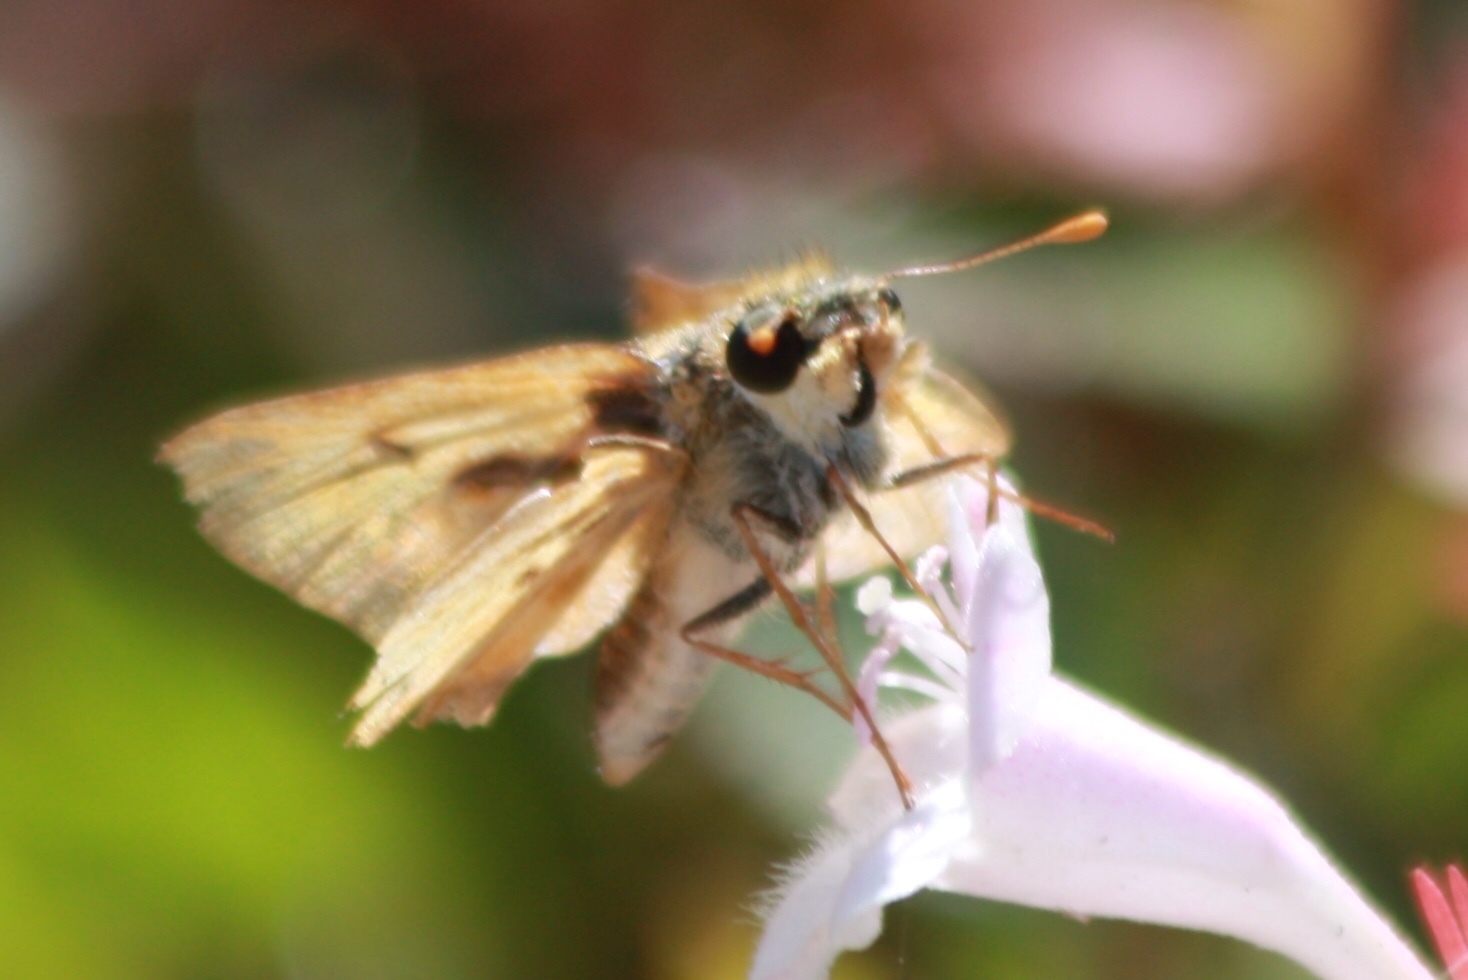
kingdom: Animalia
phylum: Arthropoda
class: Insecta
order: Lepidoptera
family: Hesperiidae
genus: Hylephila
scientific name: Hylephila phyleus
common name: Fiery skipper
